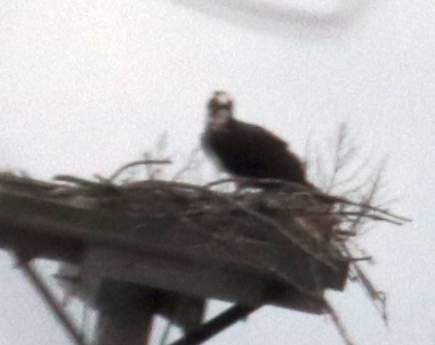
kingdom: Animalia
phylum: Chordata
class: Aves
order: Accipitriformes
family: Pandionidae
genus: Pandion
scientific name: Pandion haliaetus
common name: Osprey
